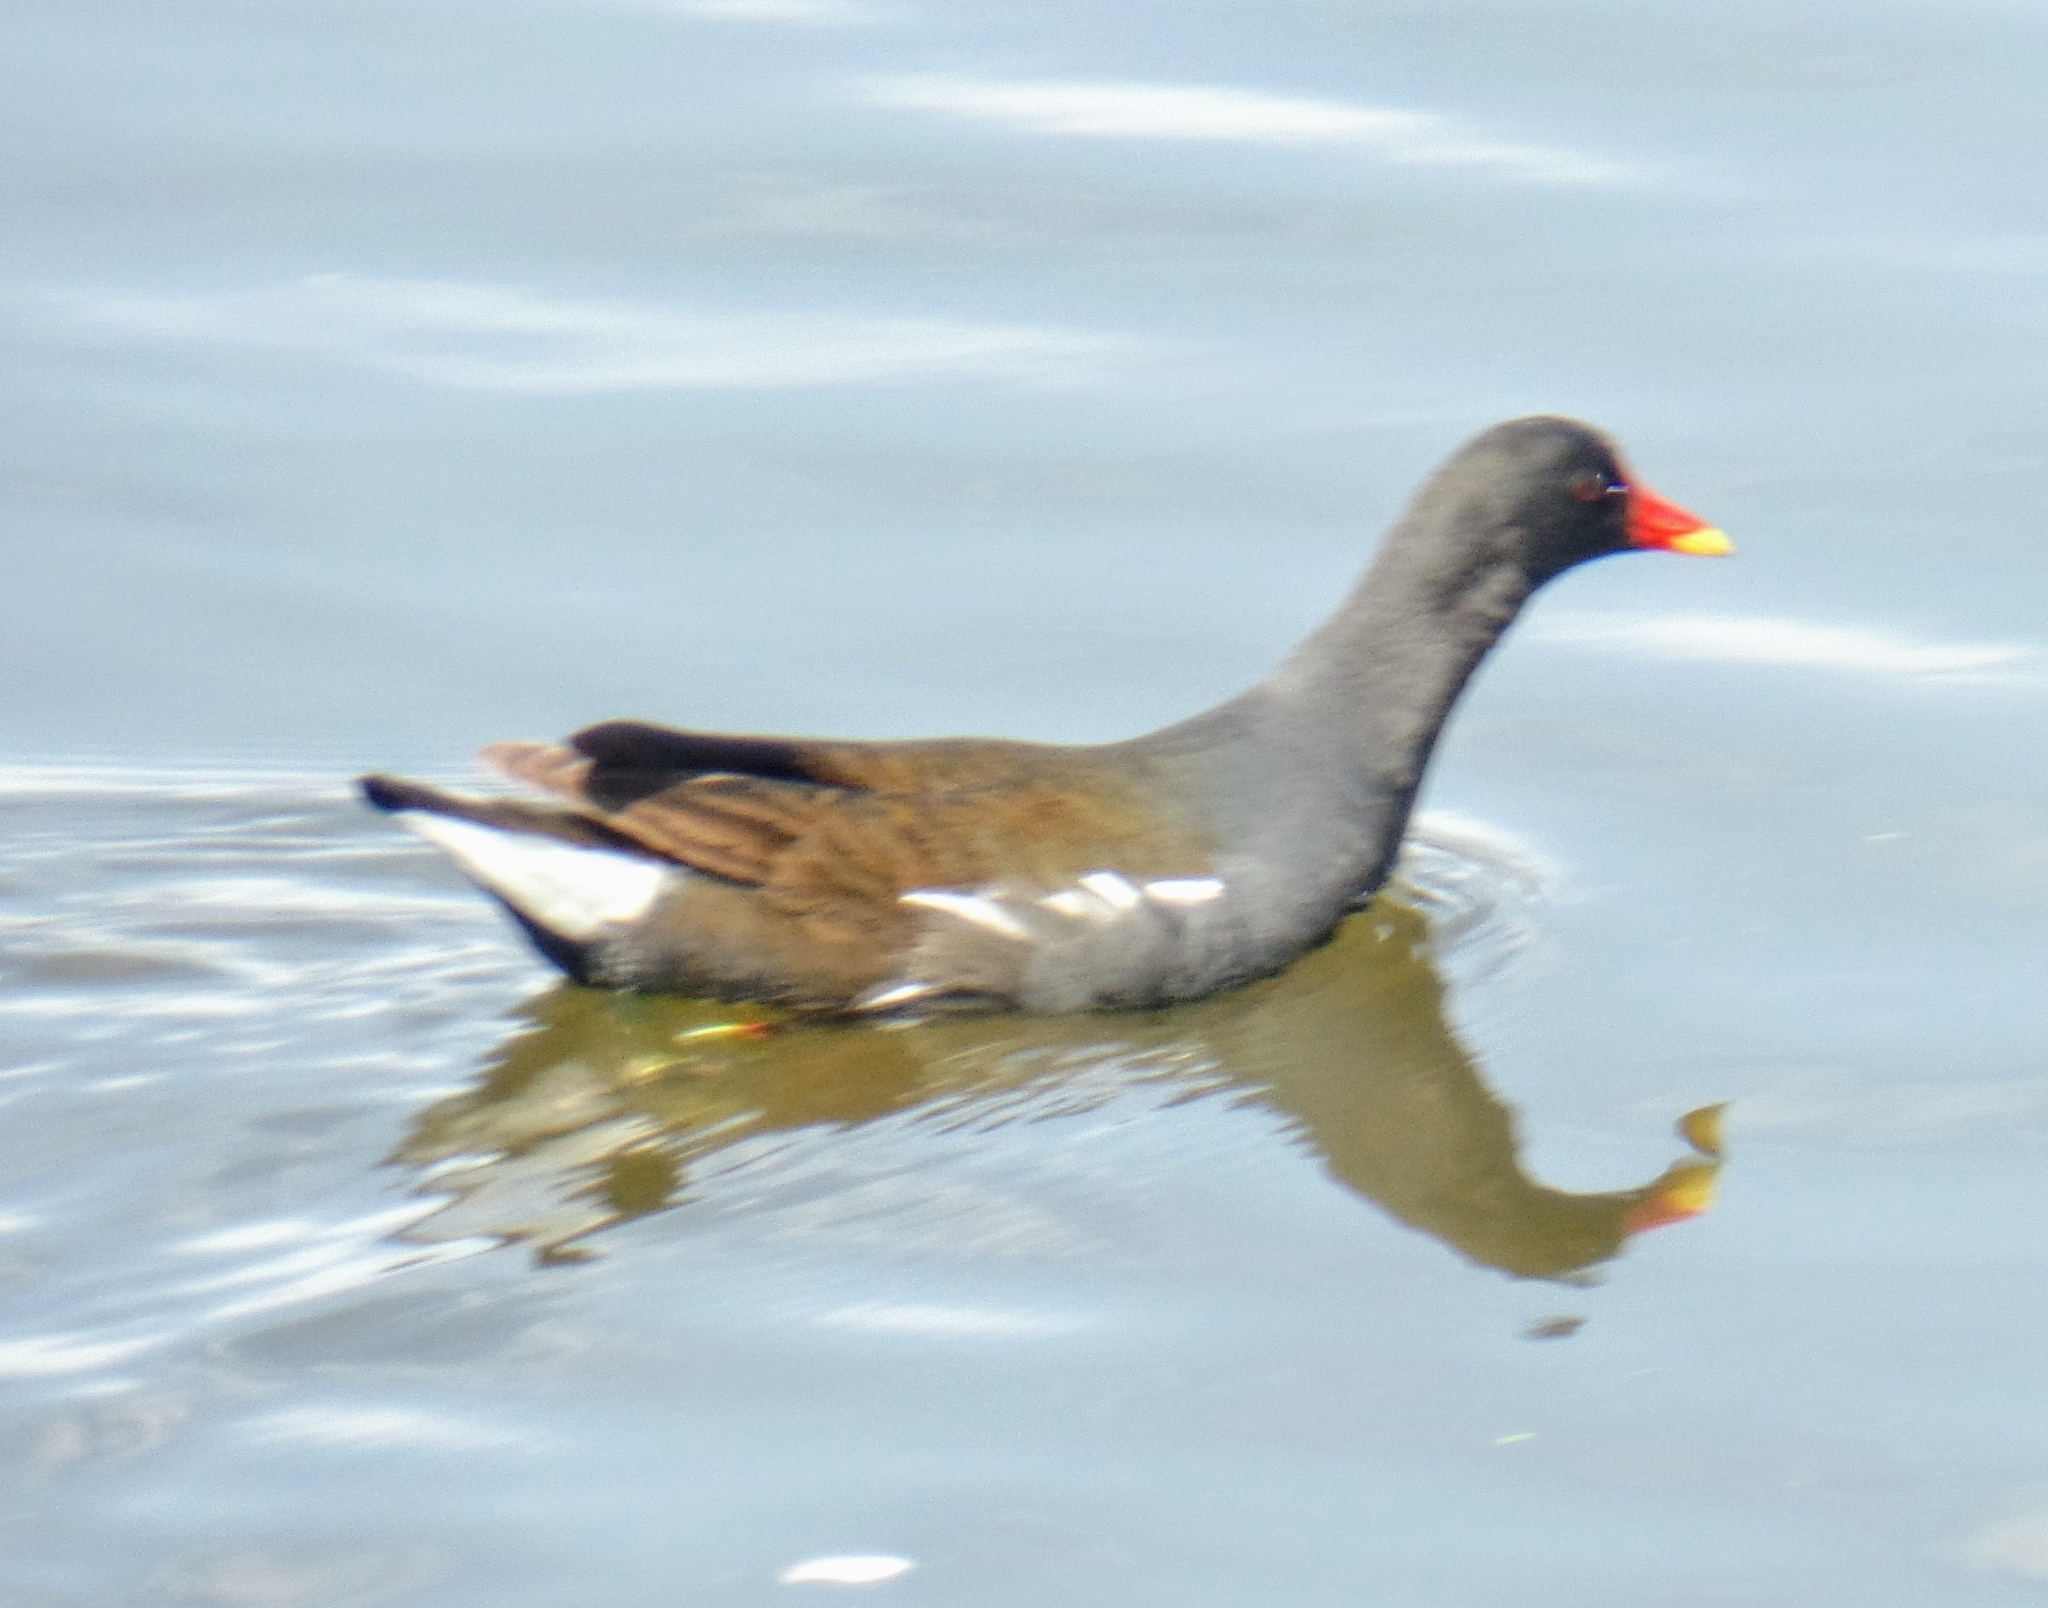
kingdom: Animalia
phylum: Chordata
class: Aves
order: Gruiformes
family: Rallidae
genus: Gallinula
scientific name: Gallinula chloropus
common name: Common moorhen
